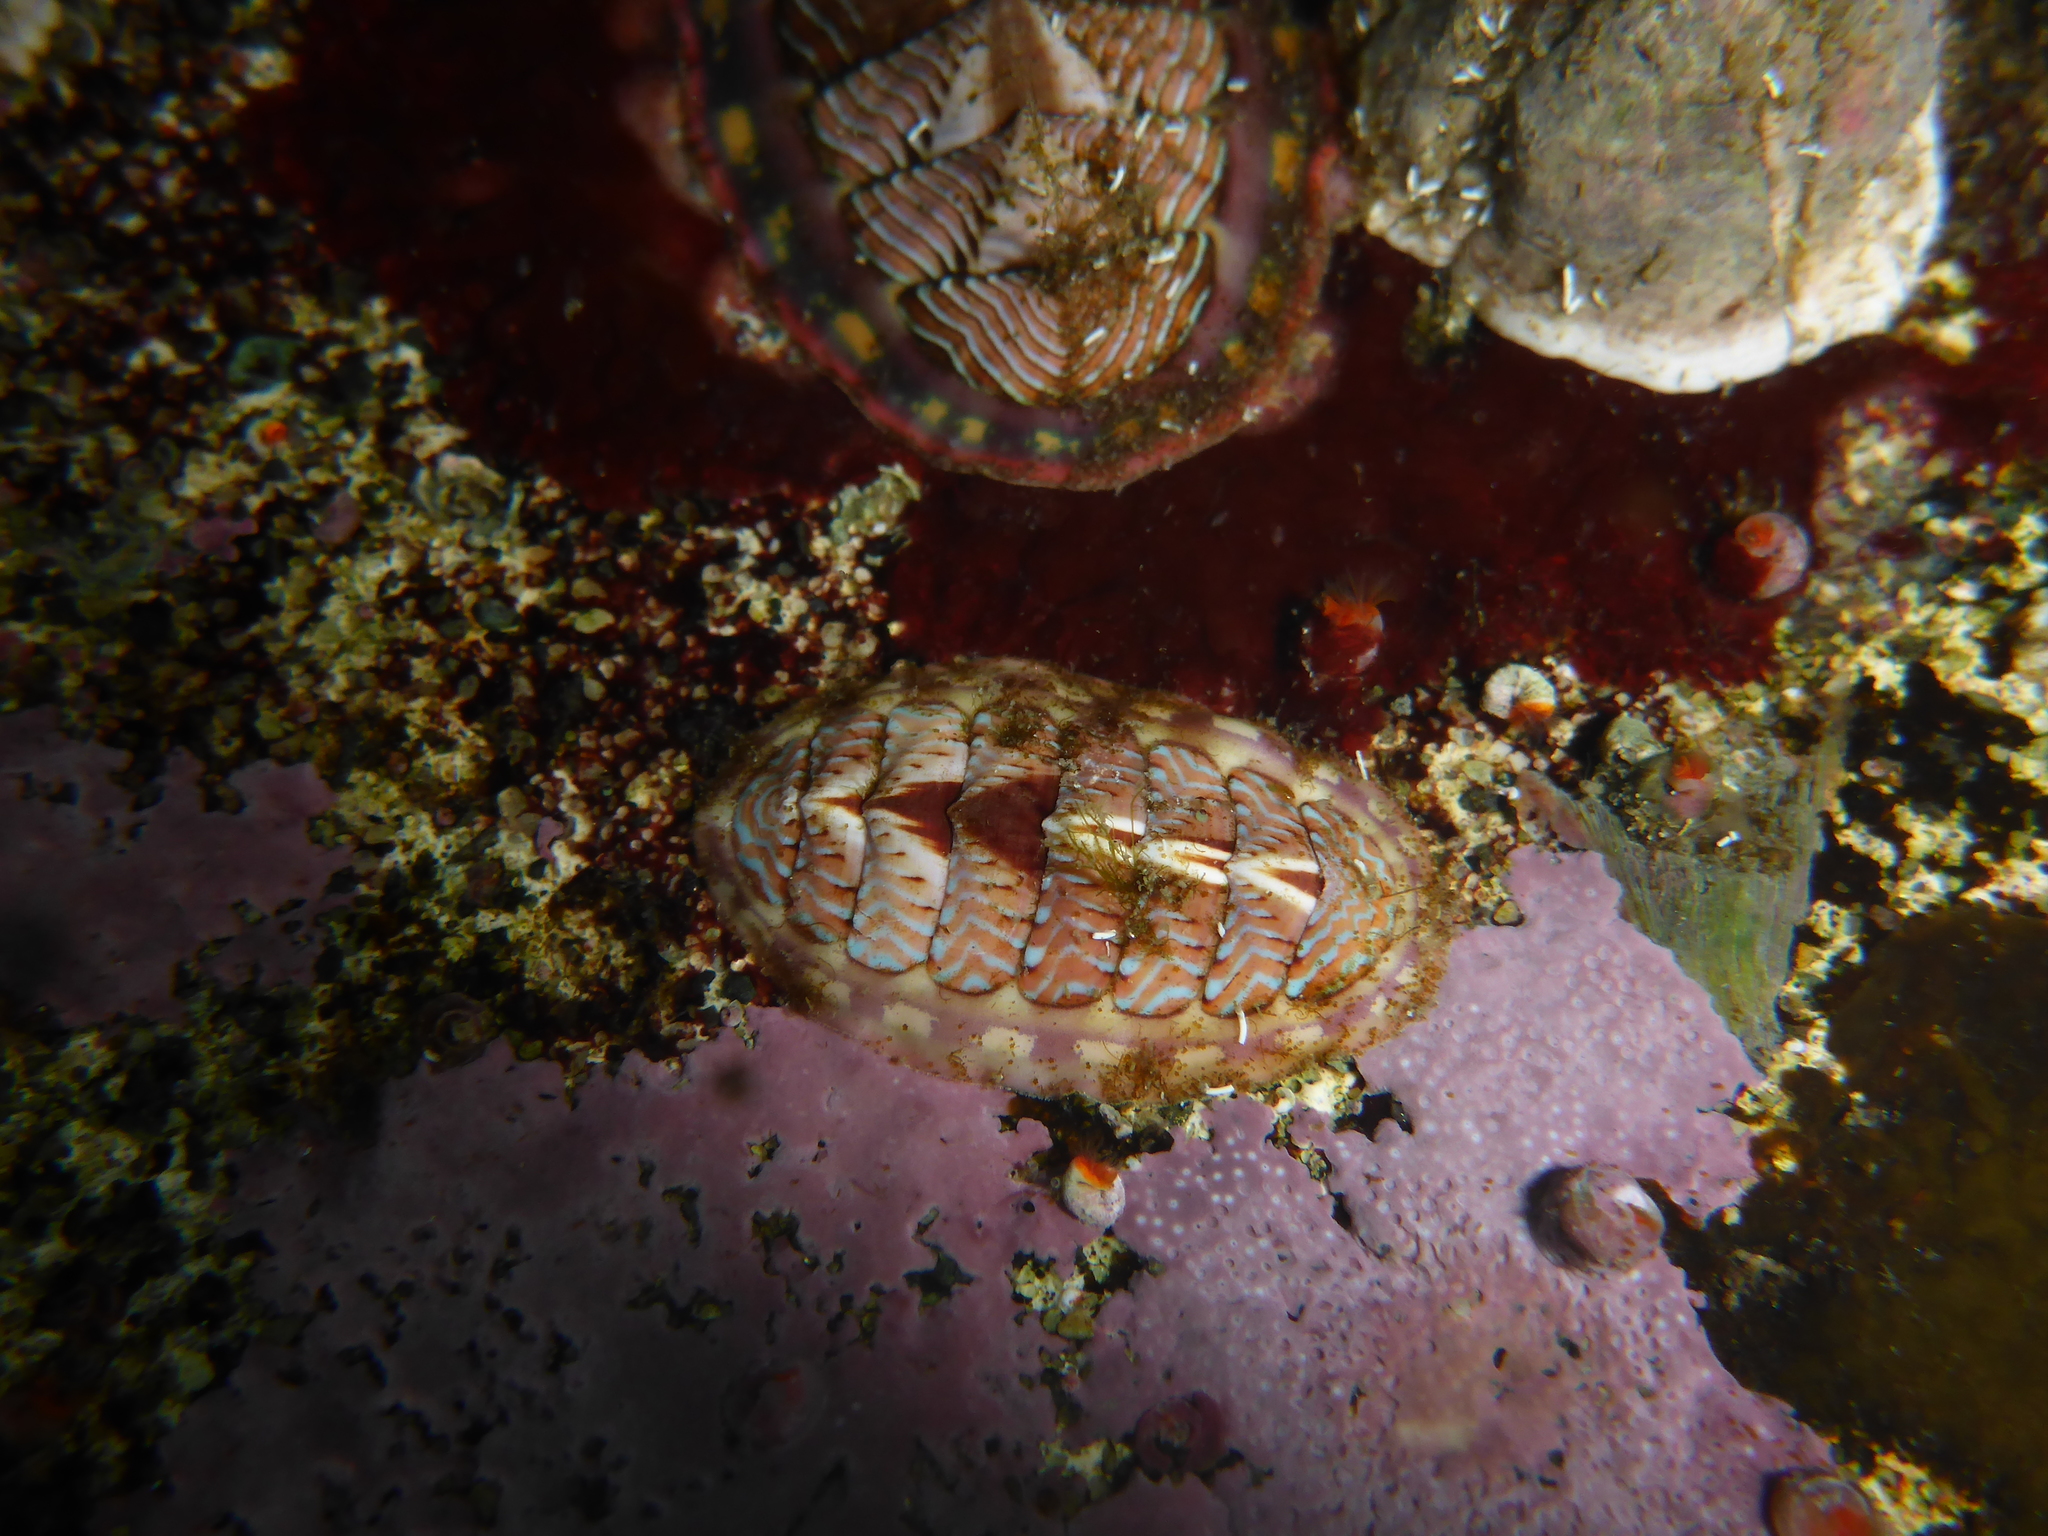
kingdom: Animalia
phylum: Mollusca
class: Polyplacophora
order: Chitonida
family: Tonicellidae
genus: Tonicella
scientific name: Tonicella lineata
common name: Lined chiton
